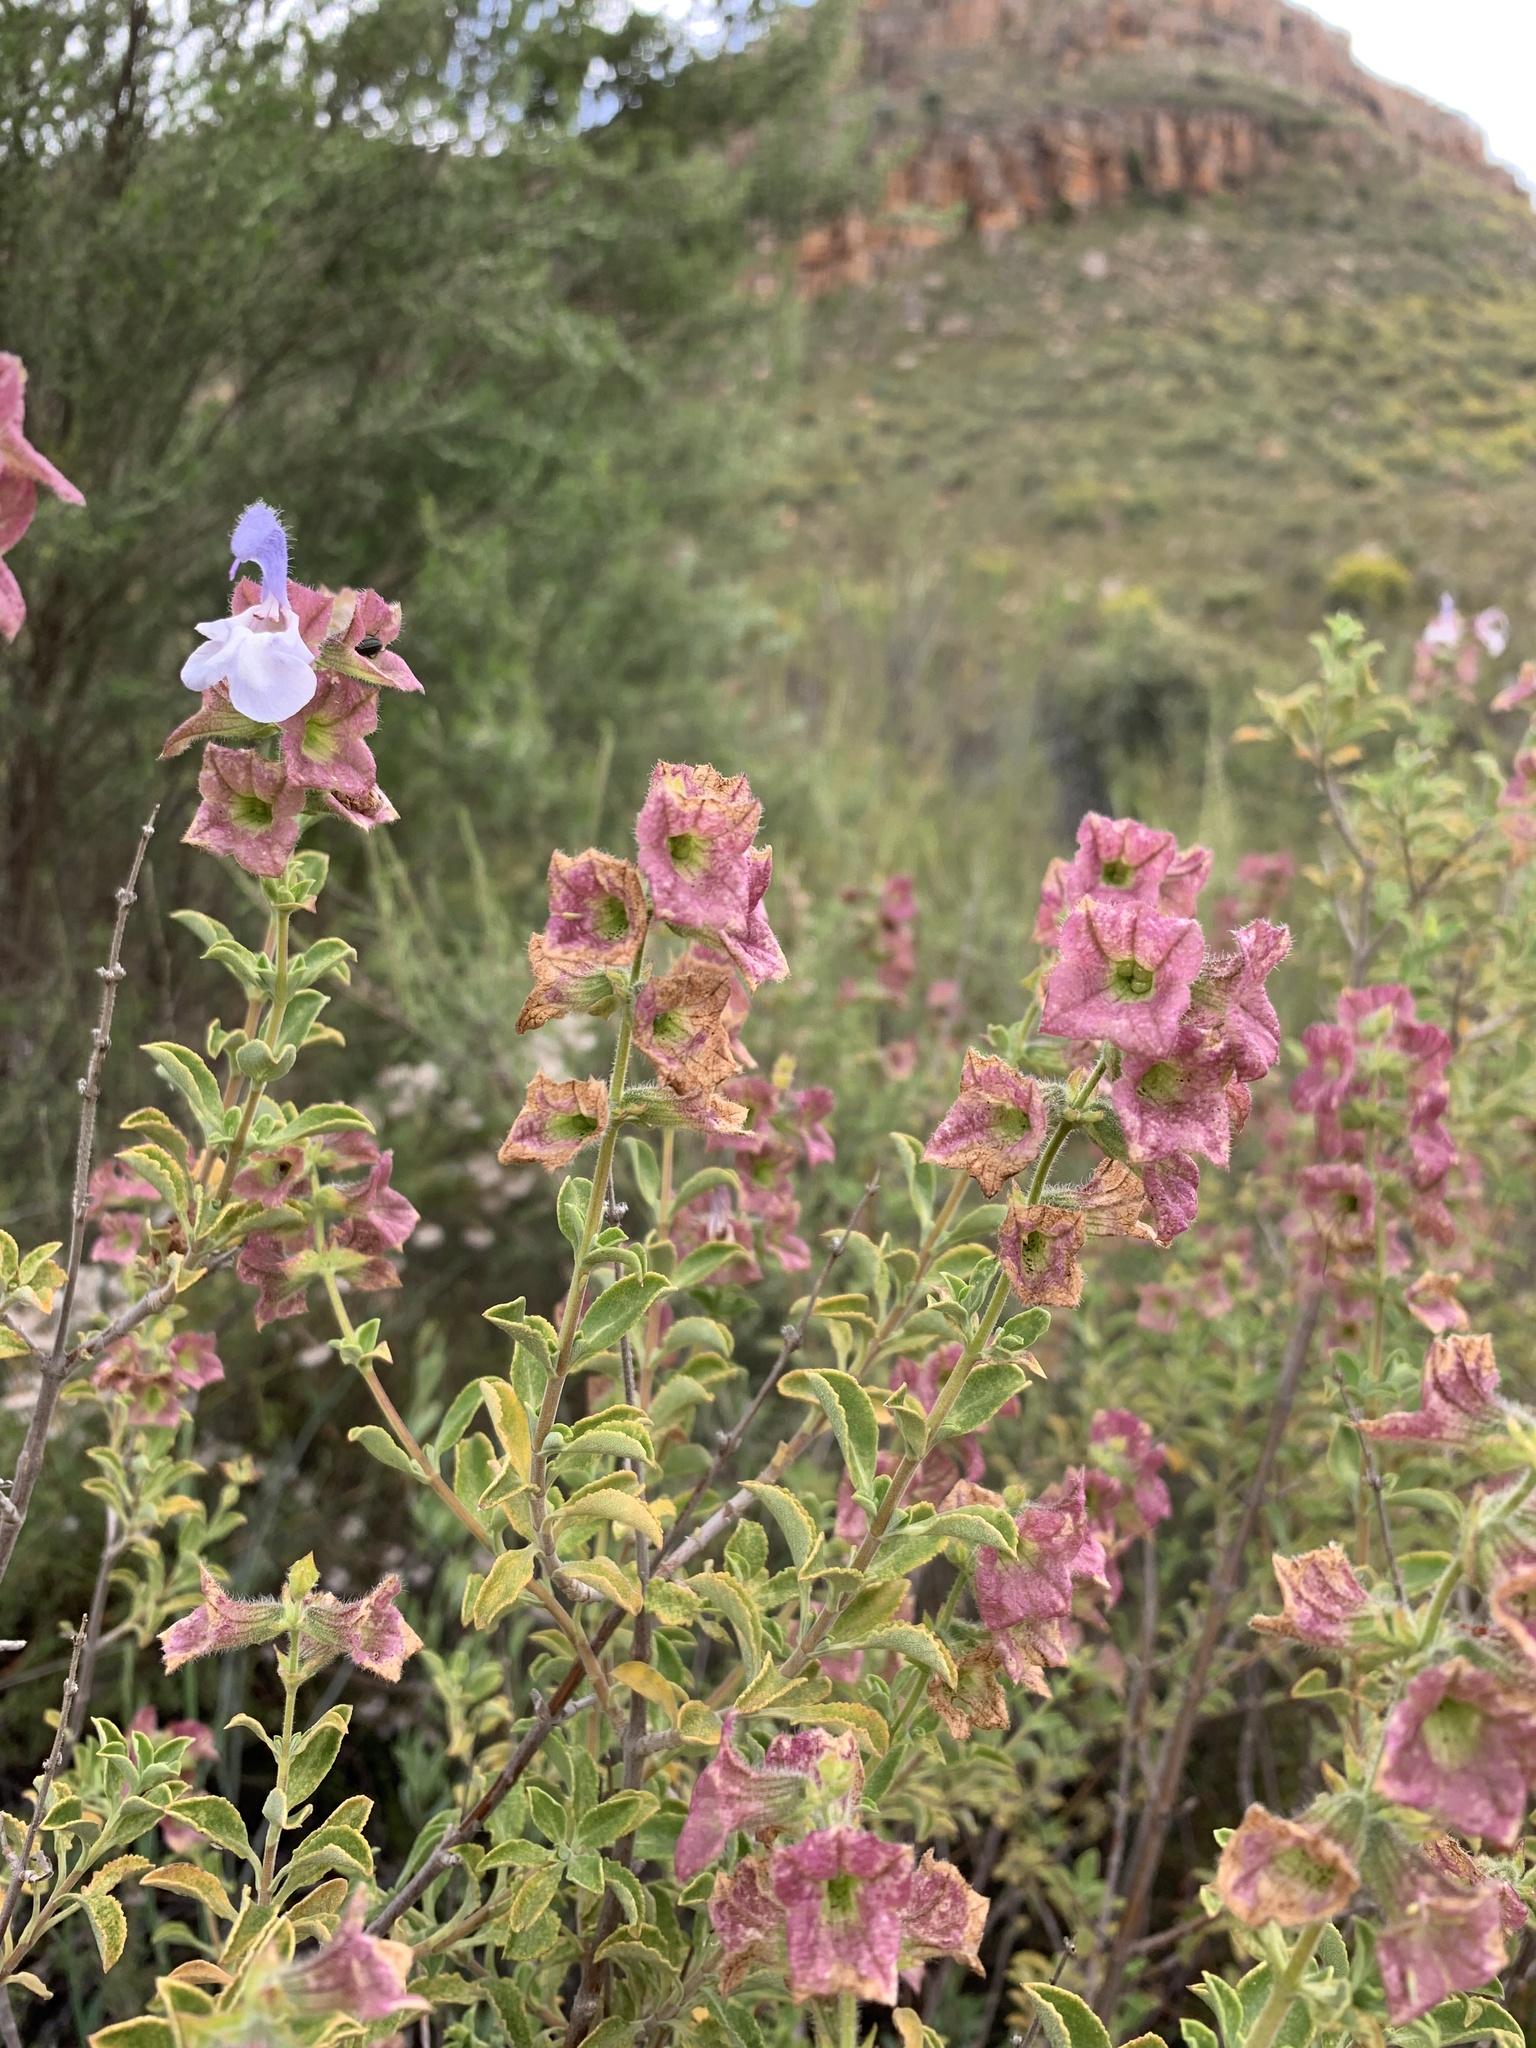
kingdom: Plantae
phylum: Tracheophyta
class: Magnoliopsida
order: Lamiales
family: Lamiaceae
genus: Salvia
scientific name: Salvia africana
